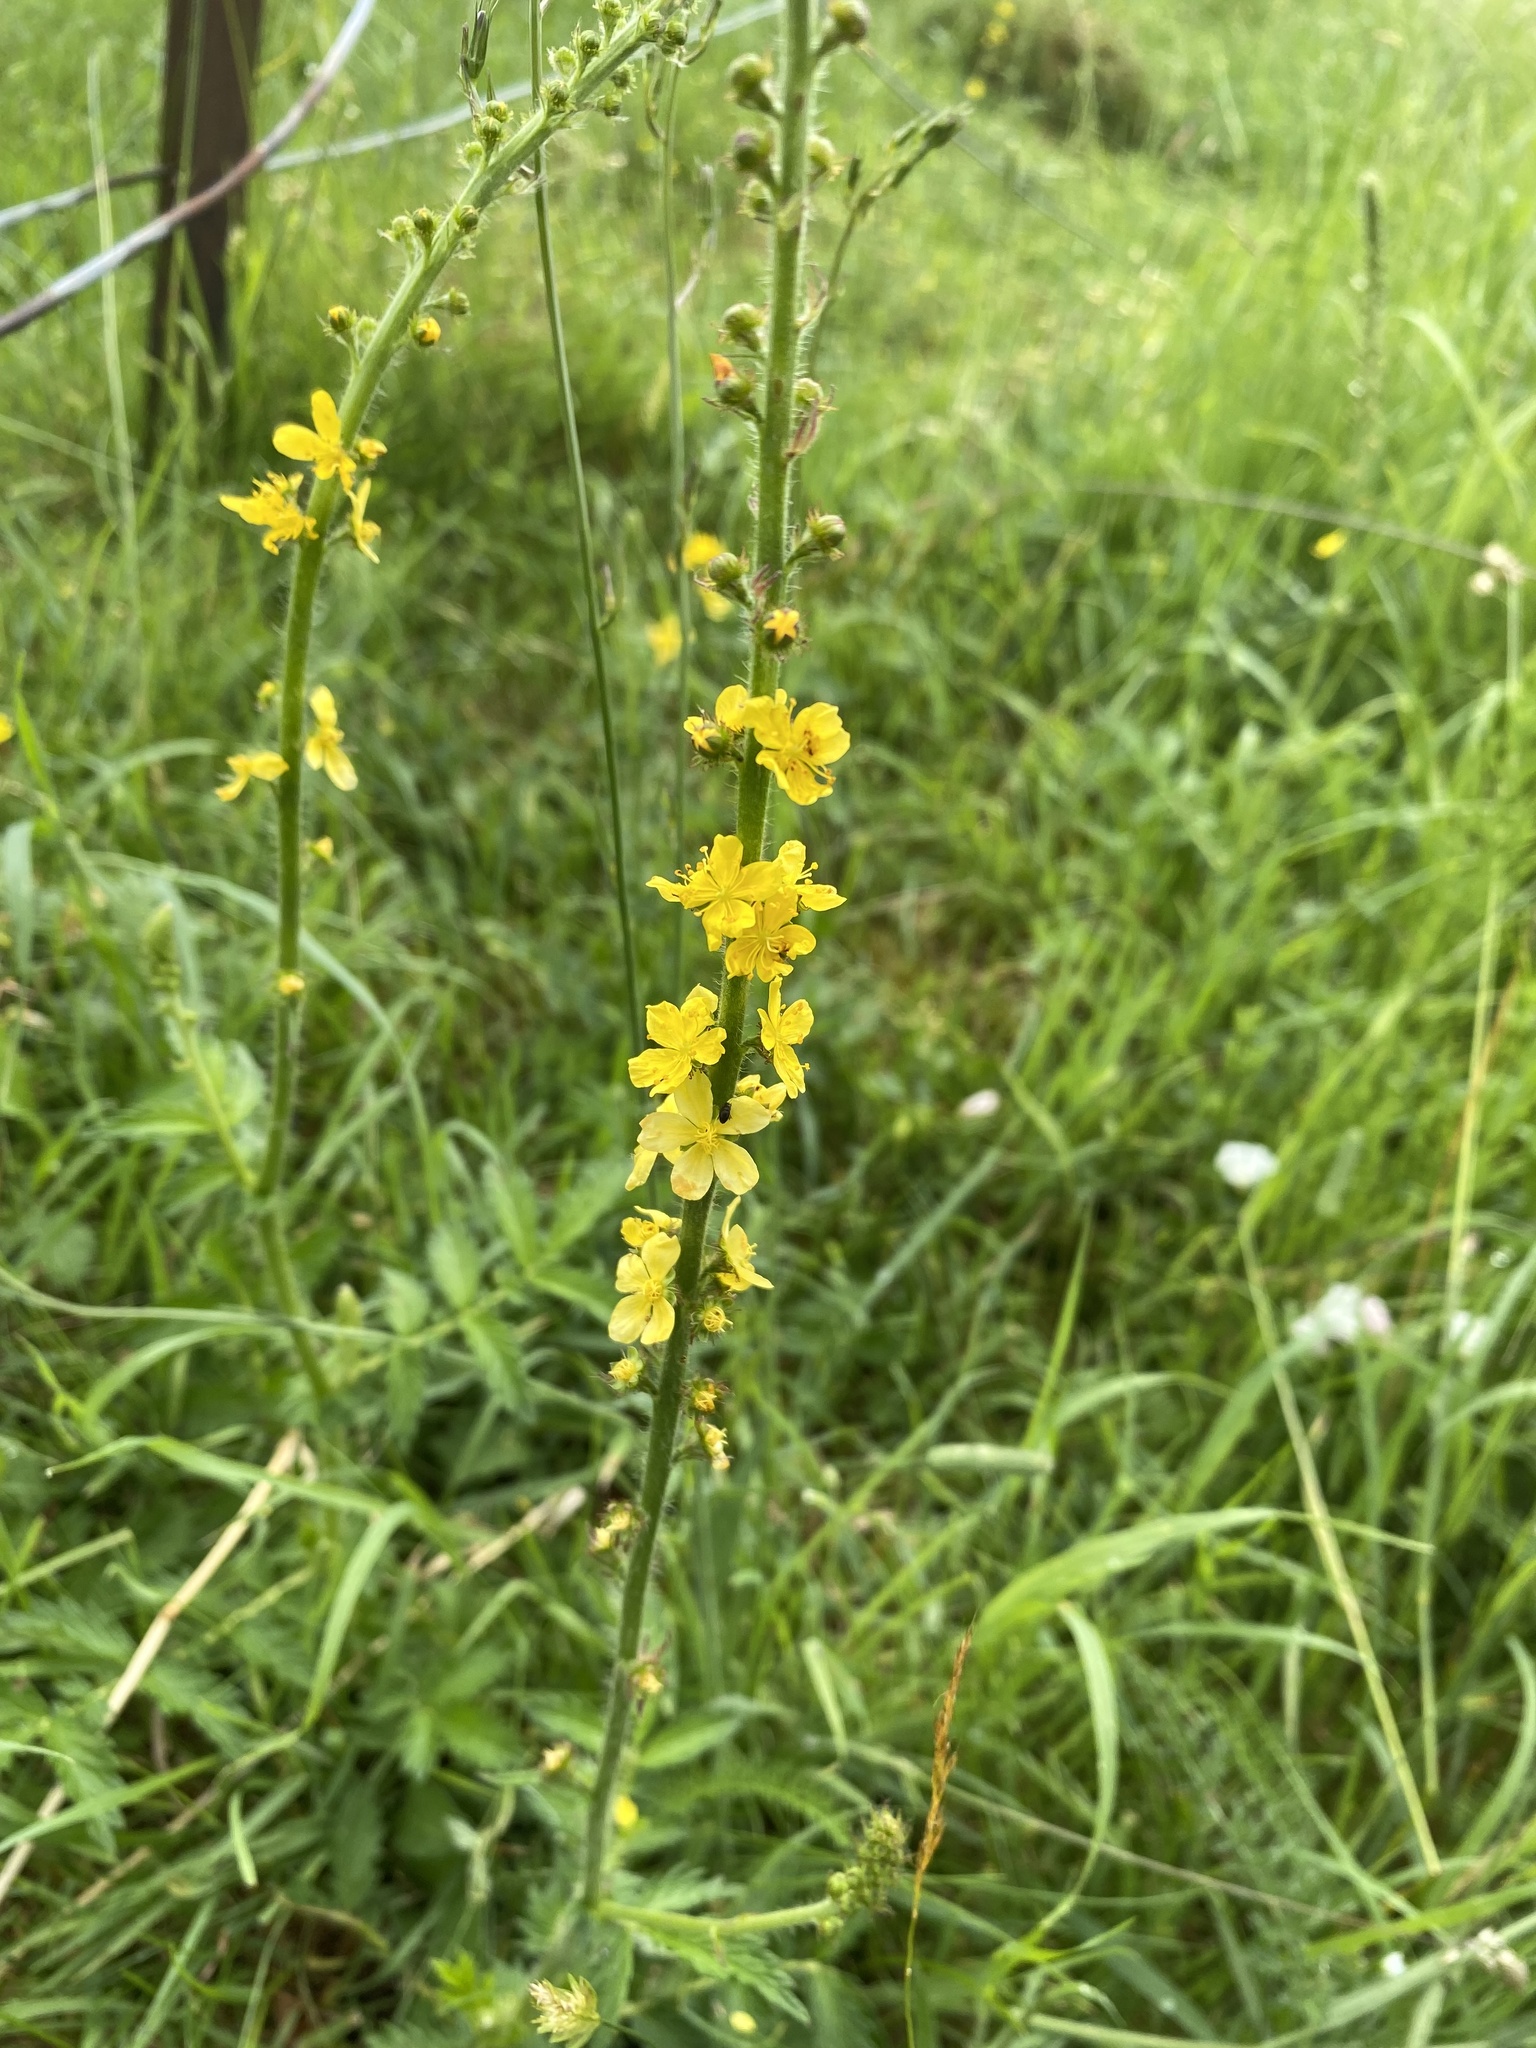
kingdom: Plantae
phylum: Tracheophyta
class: Magnoliopsida
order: Rosales
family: Rosaceae
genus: Agrimonia
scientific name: Agrimonia eupatoria
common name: Agrimony
